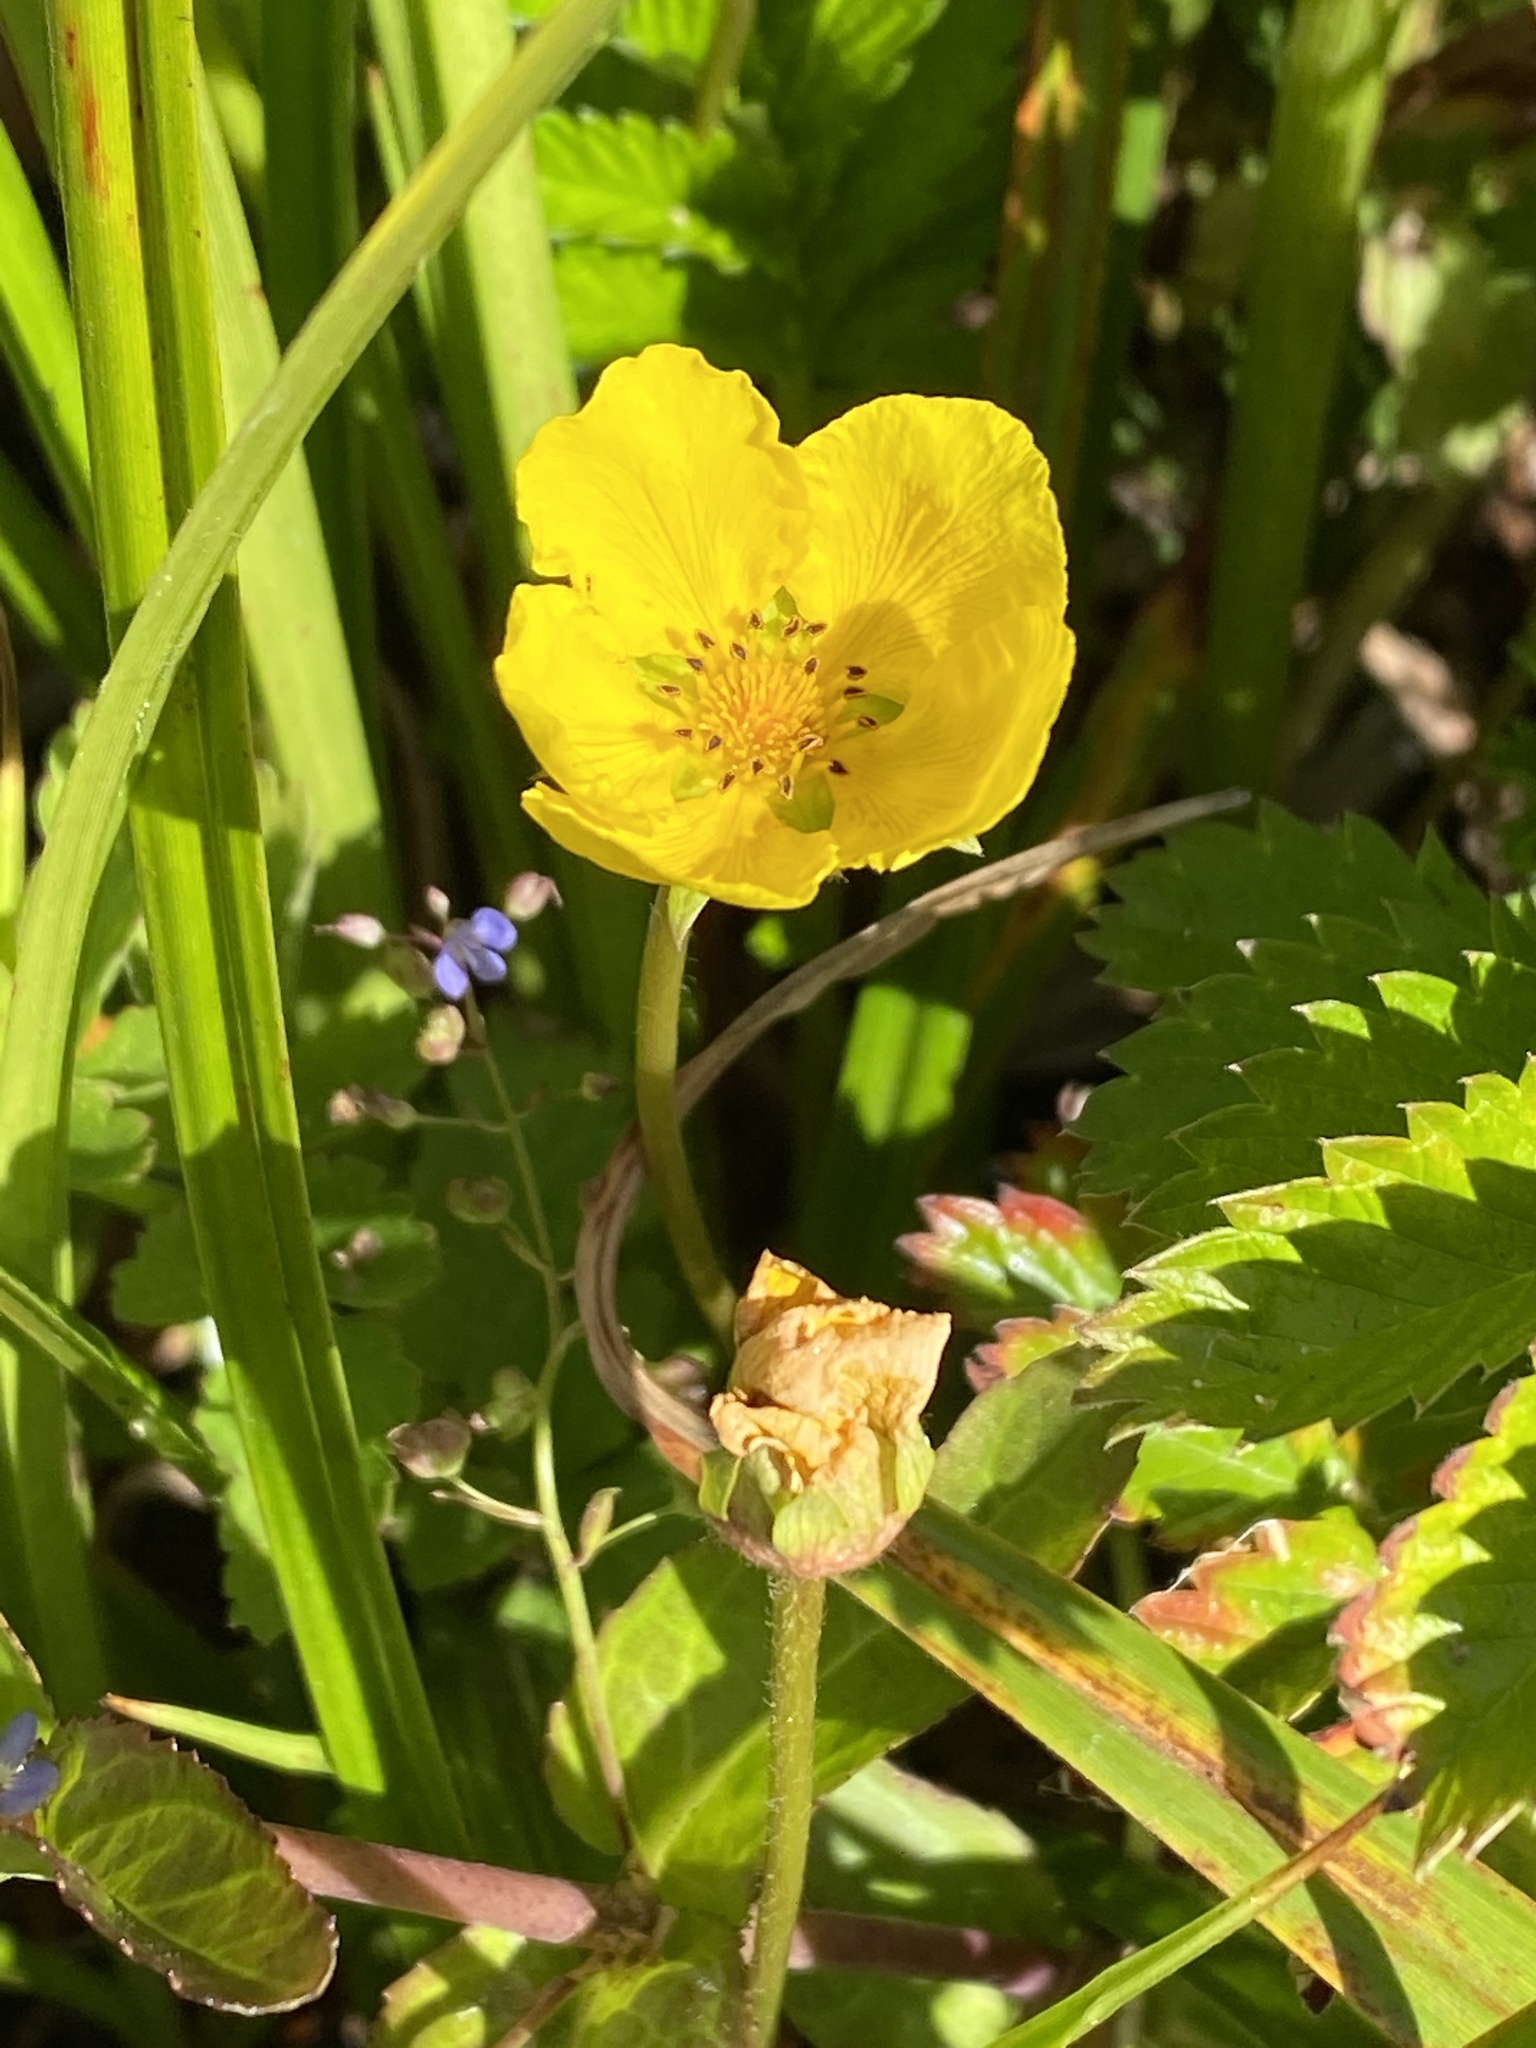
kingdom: Plantae
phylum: Tracheophyta
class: Magnoliopsida
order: Rosales
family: Rosaceae
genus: Argentina
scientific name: Argentina anserina
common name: Common silverweed
